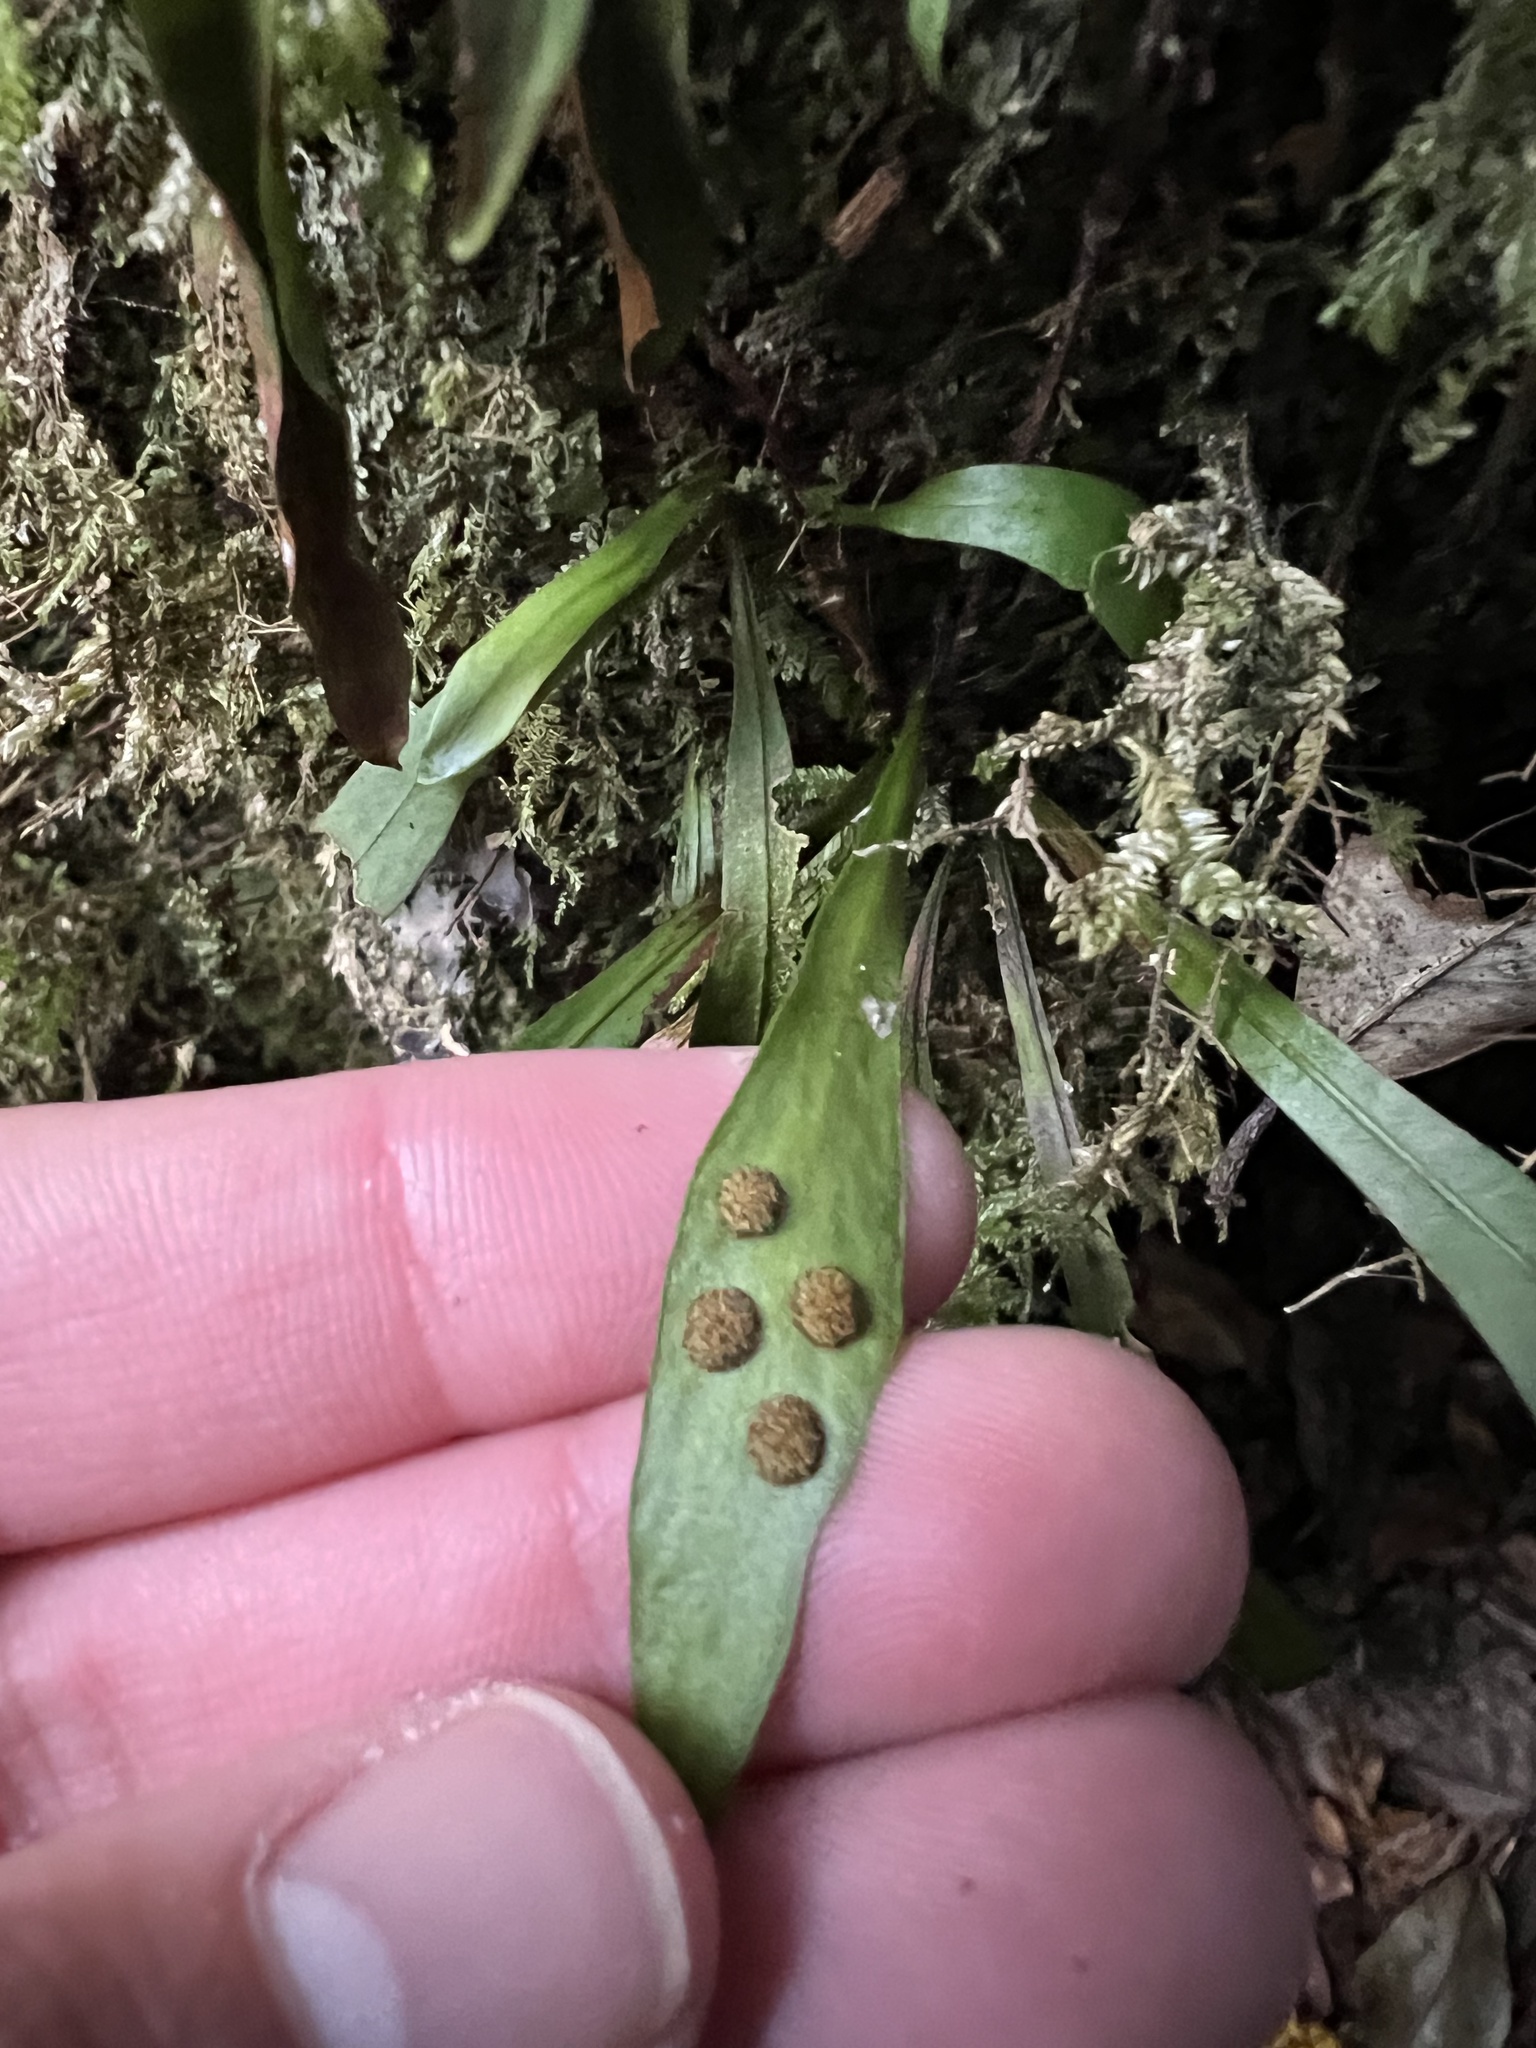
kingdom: Plantae
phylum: Tracheophyta
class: Polypodiopsida
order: Polypodiales
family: Polypodiaceae
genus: Loxogramme
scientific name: Loxogramme dictyopteris
